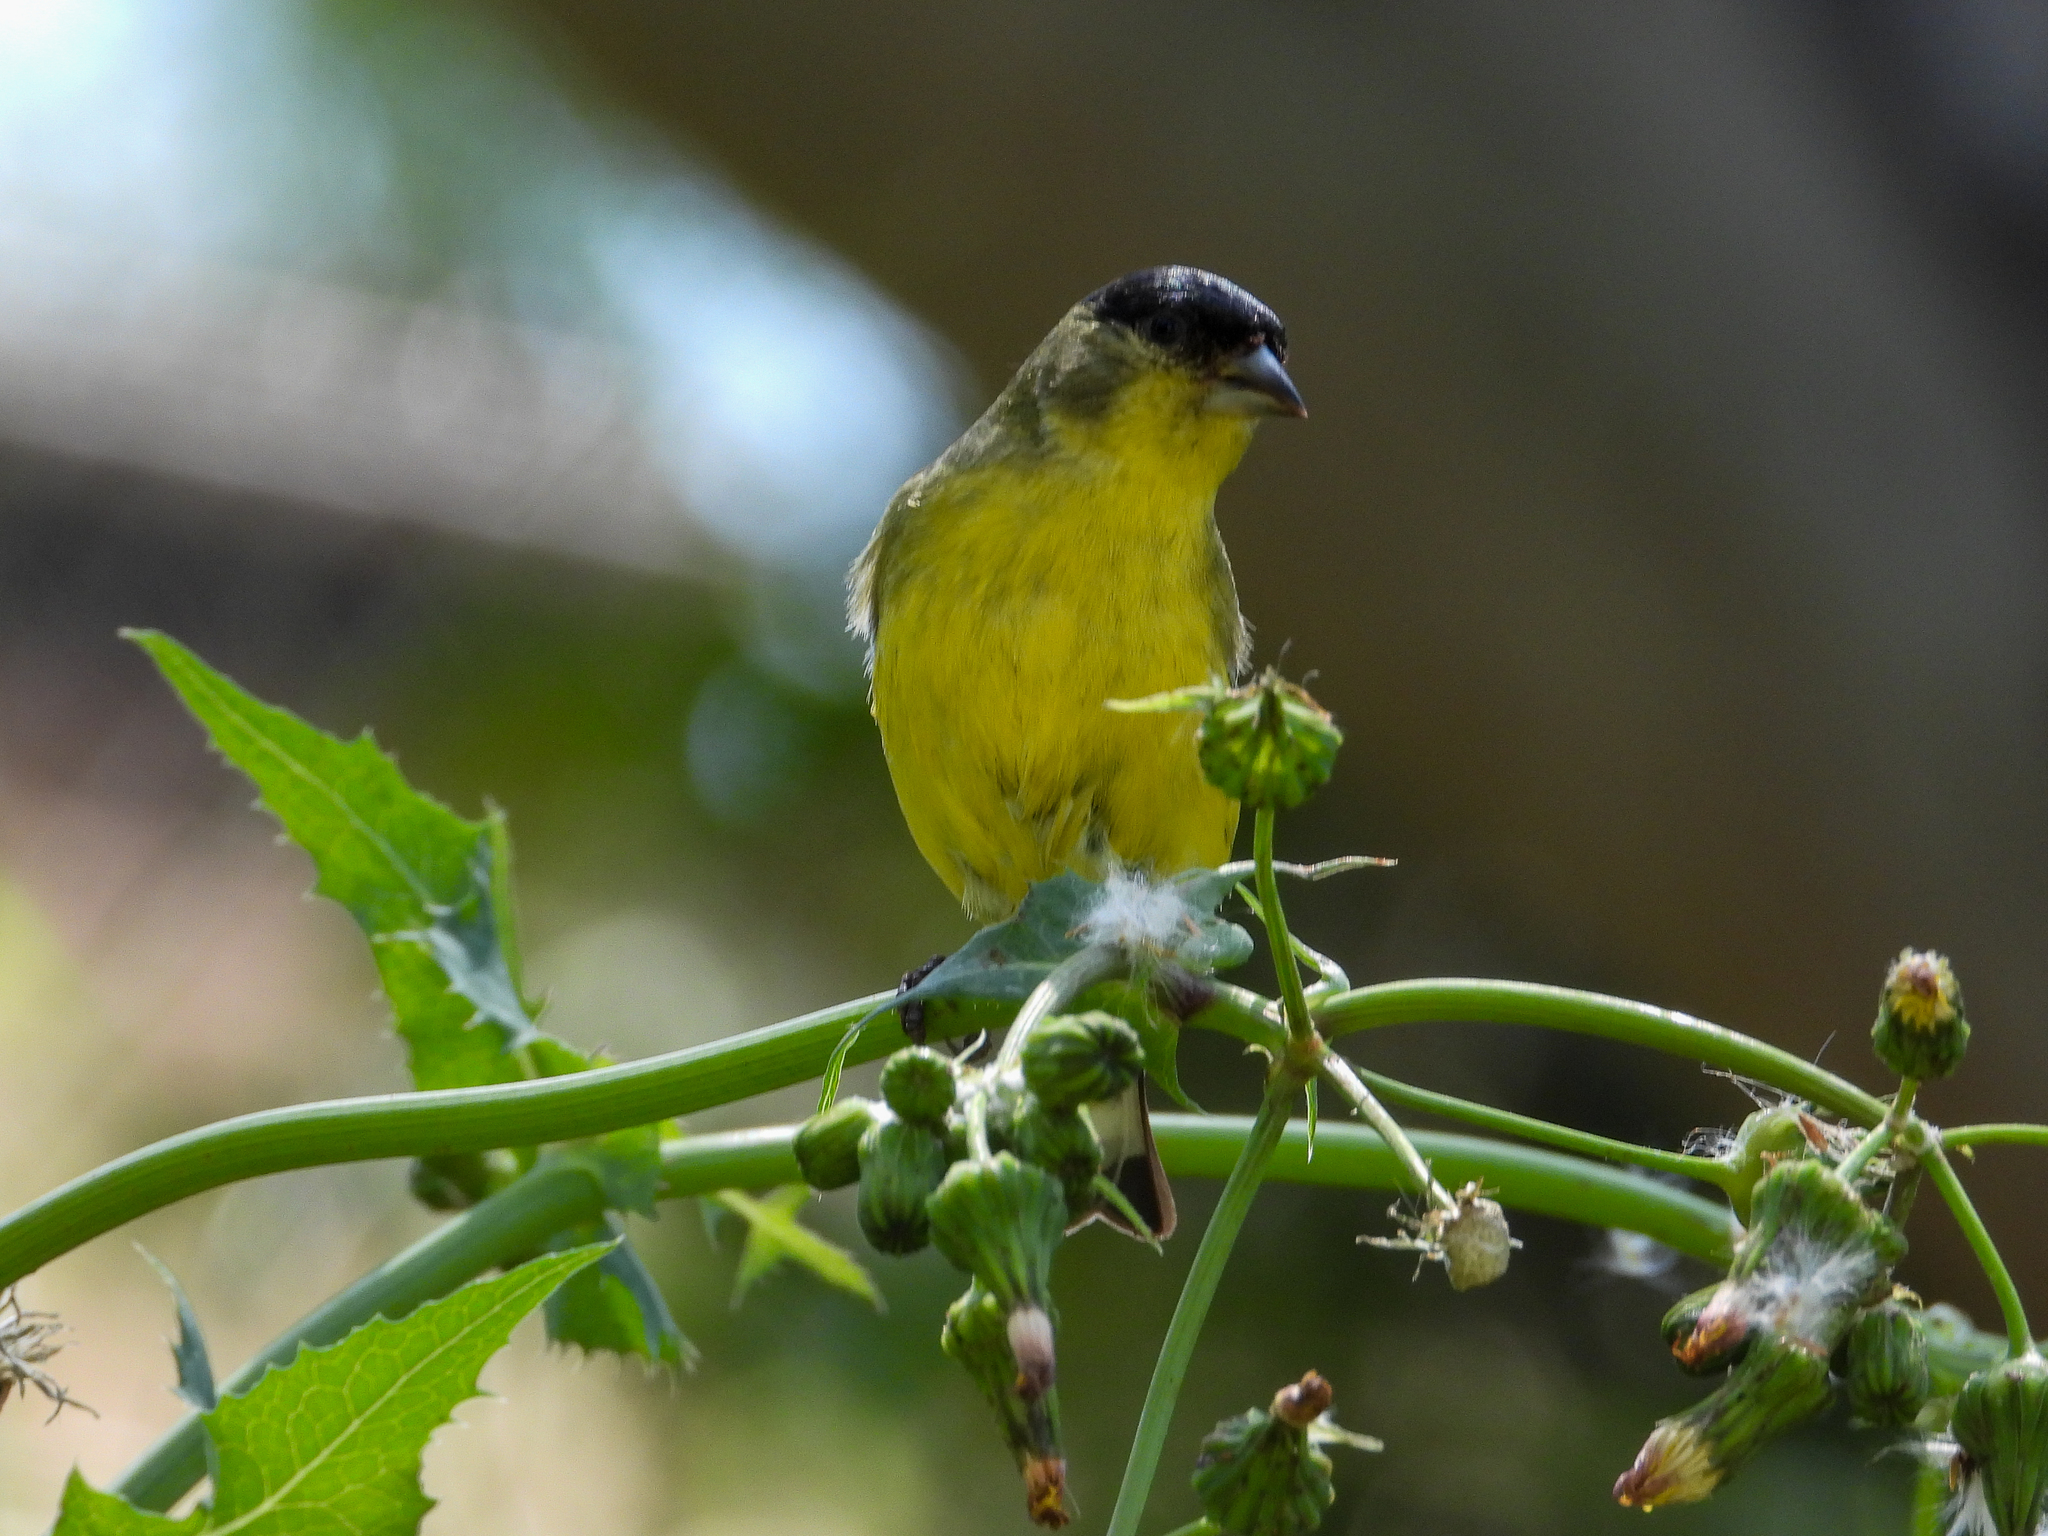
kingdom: Animalia
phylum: Chordata
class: Aves
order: Passeriformes
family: Fringillidae
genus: Spinus
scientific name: Spinus psaltria
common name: Lesser goldfinch
